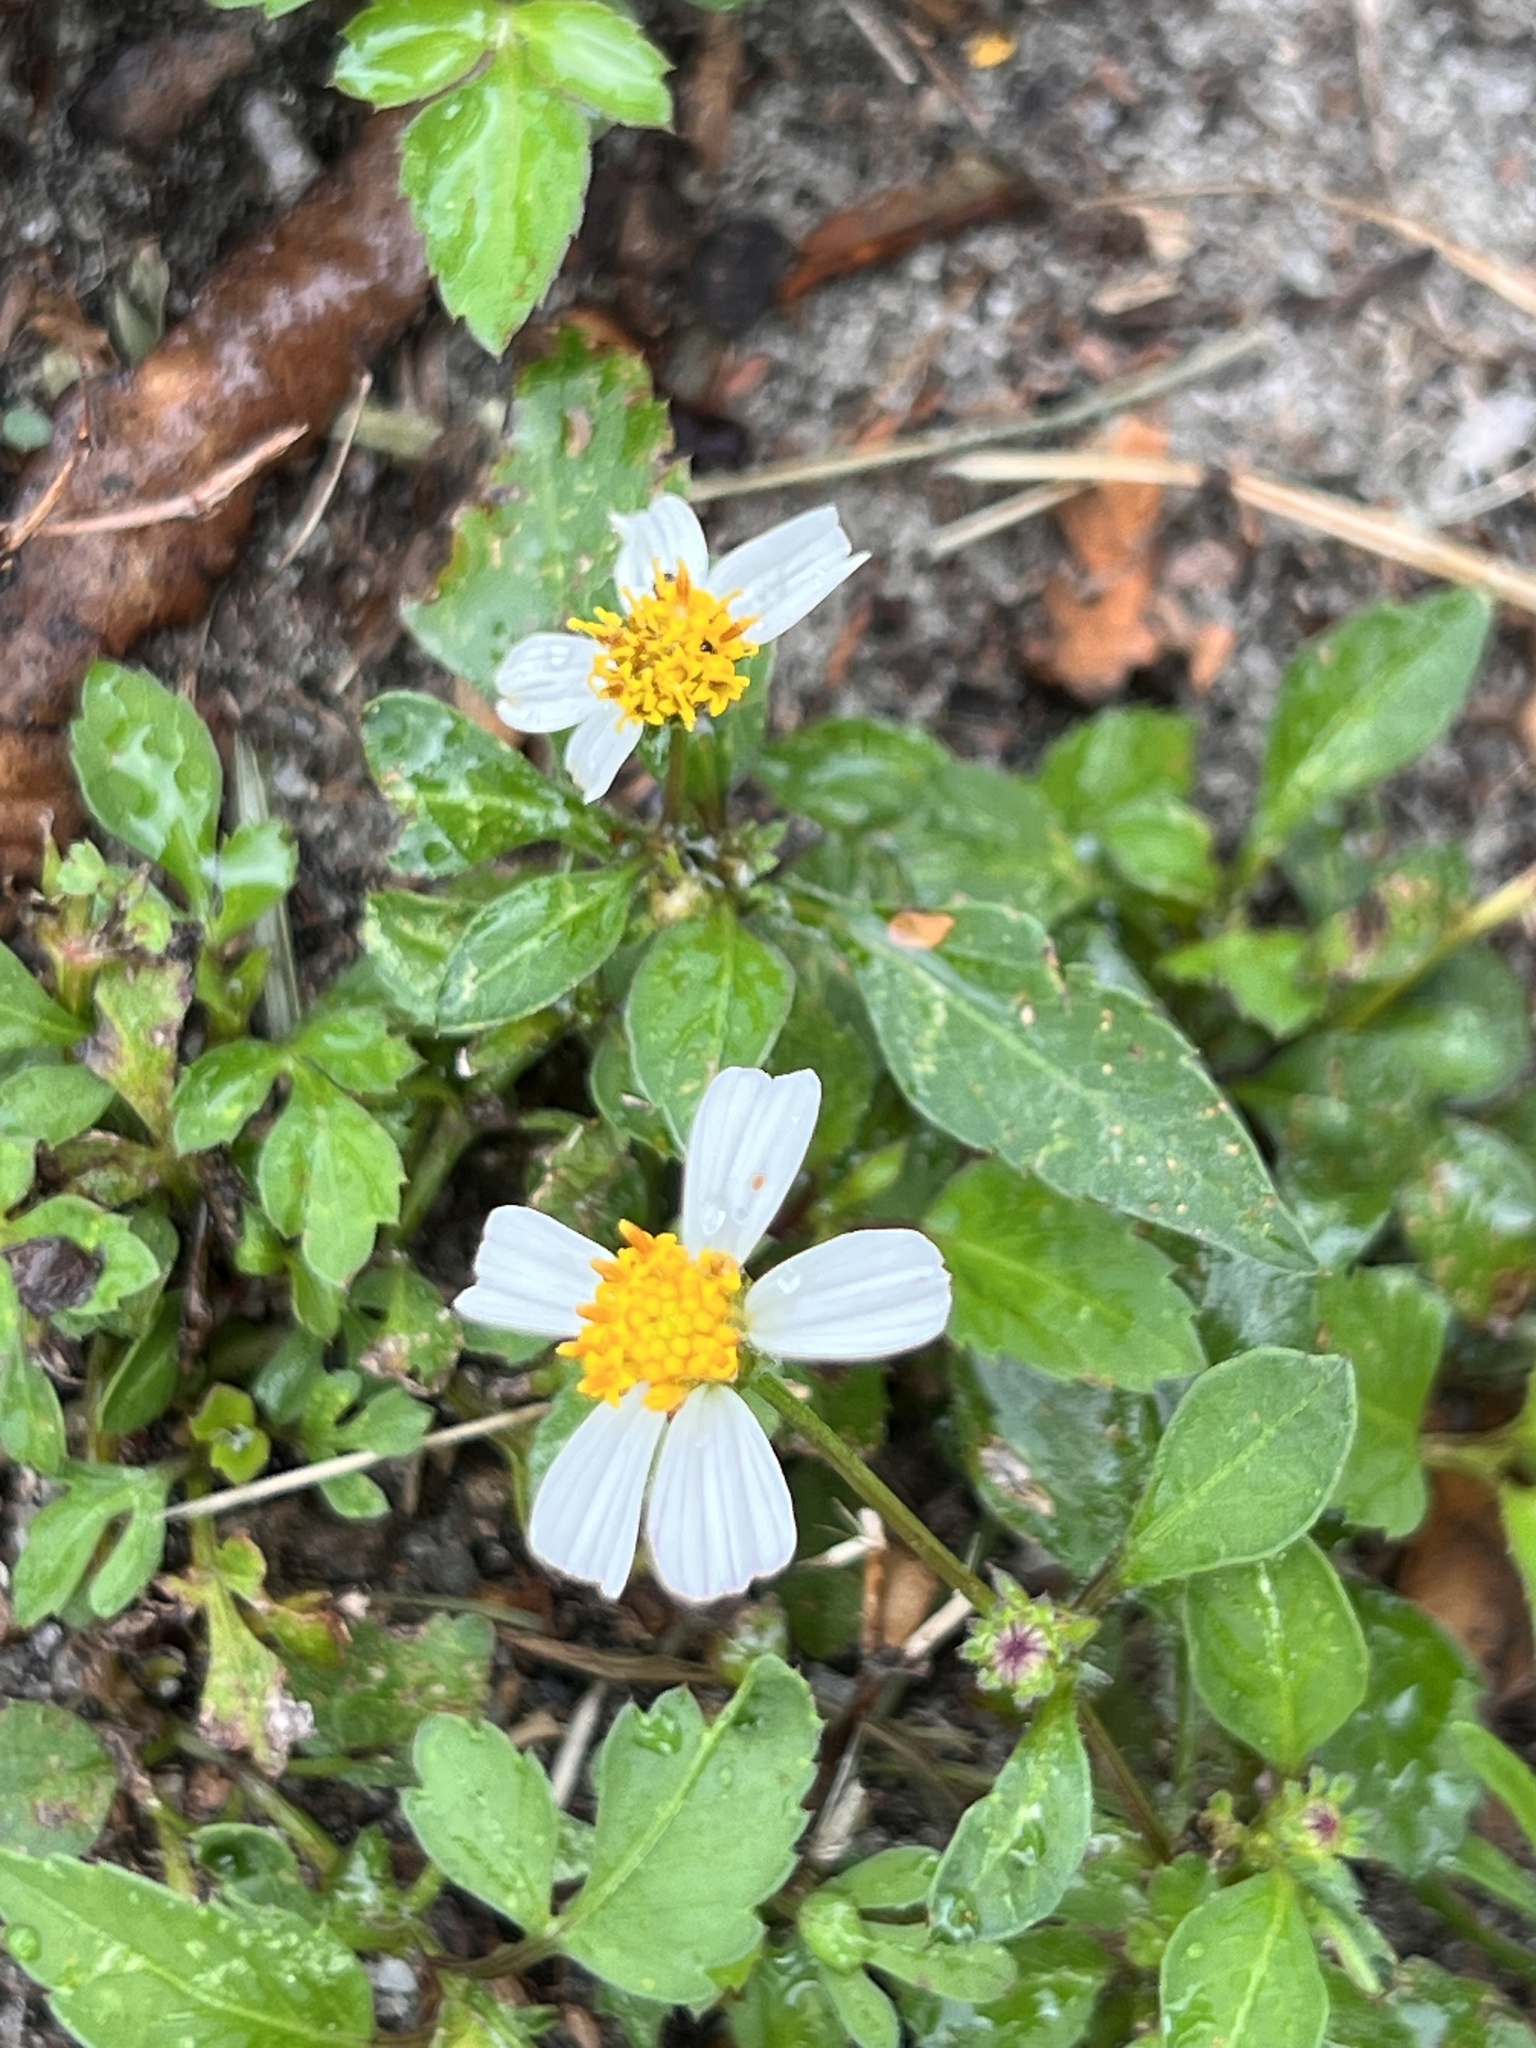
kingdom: Plantae
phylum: Tracheophyta
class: Magnoliopsida
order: Asterales
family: Asteraceae
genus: Bidens
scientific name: Bidens alba
